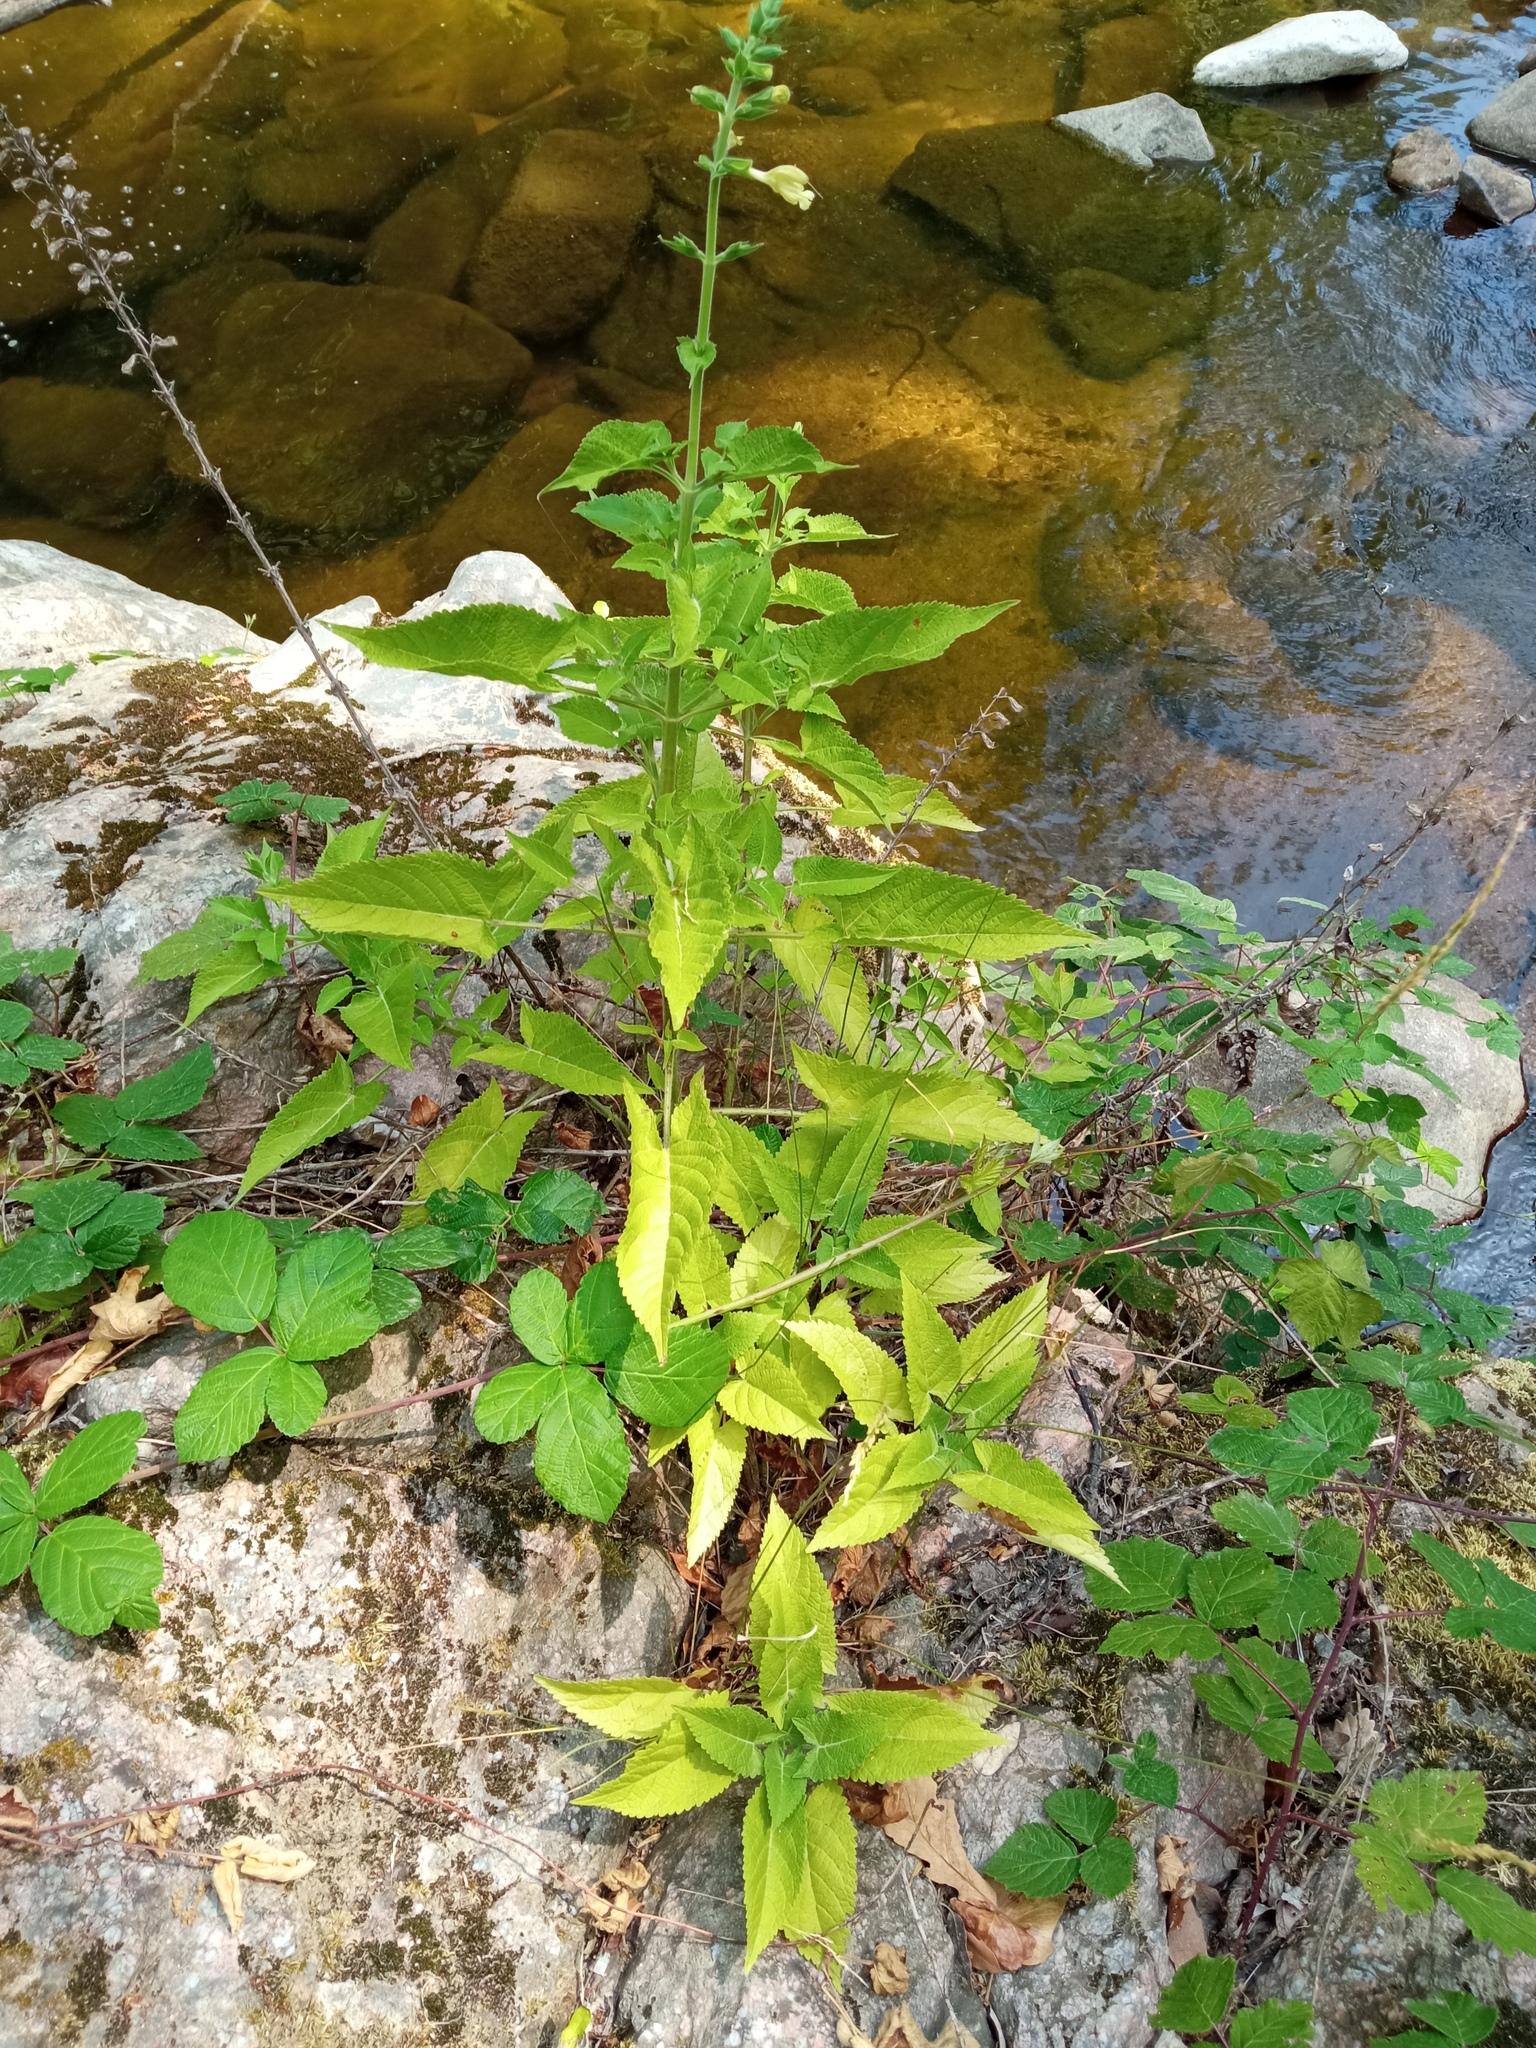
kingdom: Plantae
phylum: Tracheophyta
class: Magnoliopsida
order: Lamiales
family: Lamiaceae
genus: Salvia
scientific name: Salvia glutinosa
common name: Sticky clary
